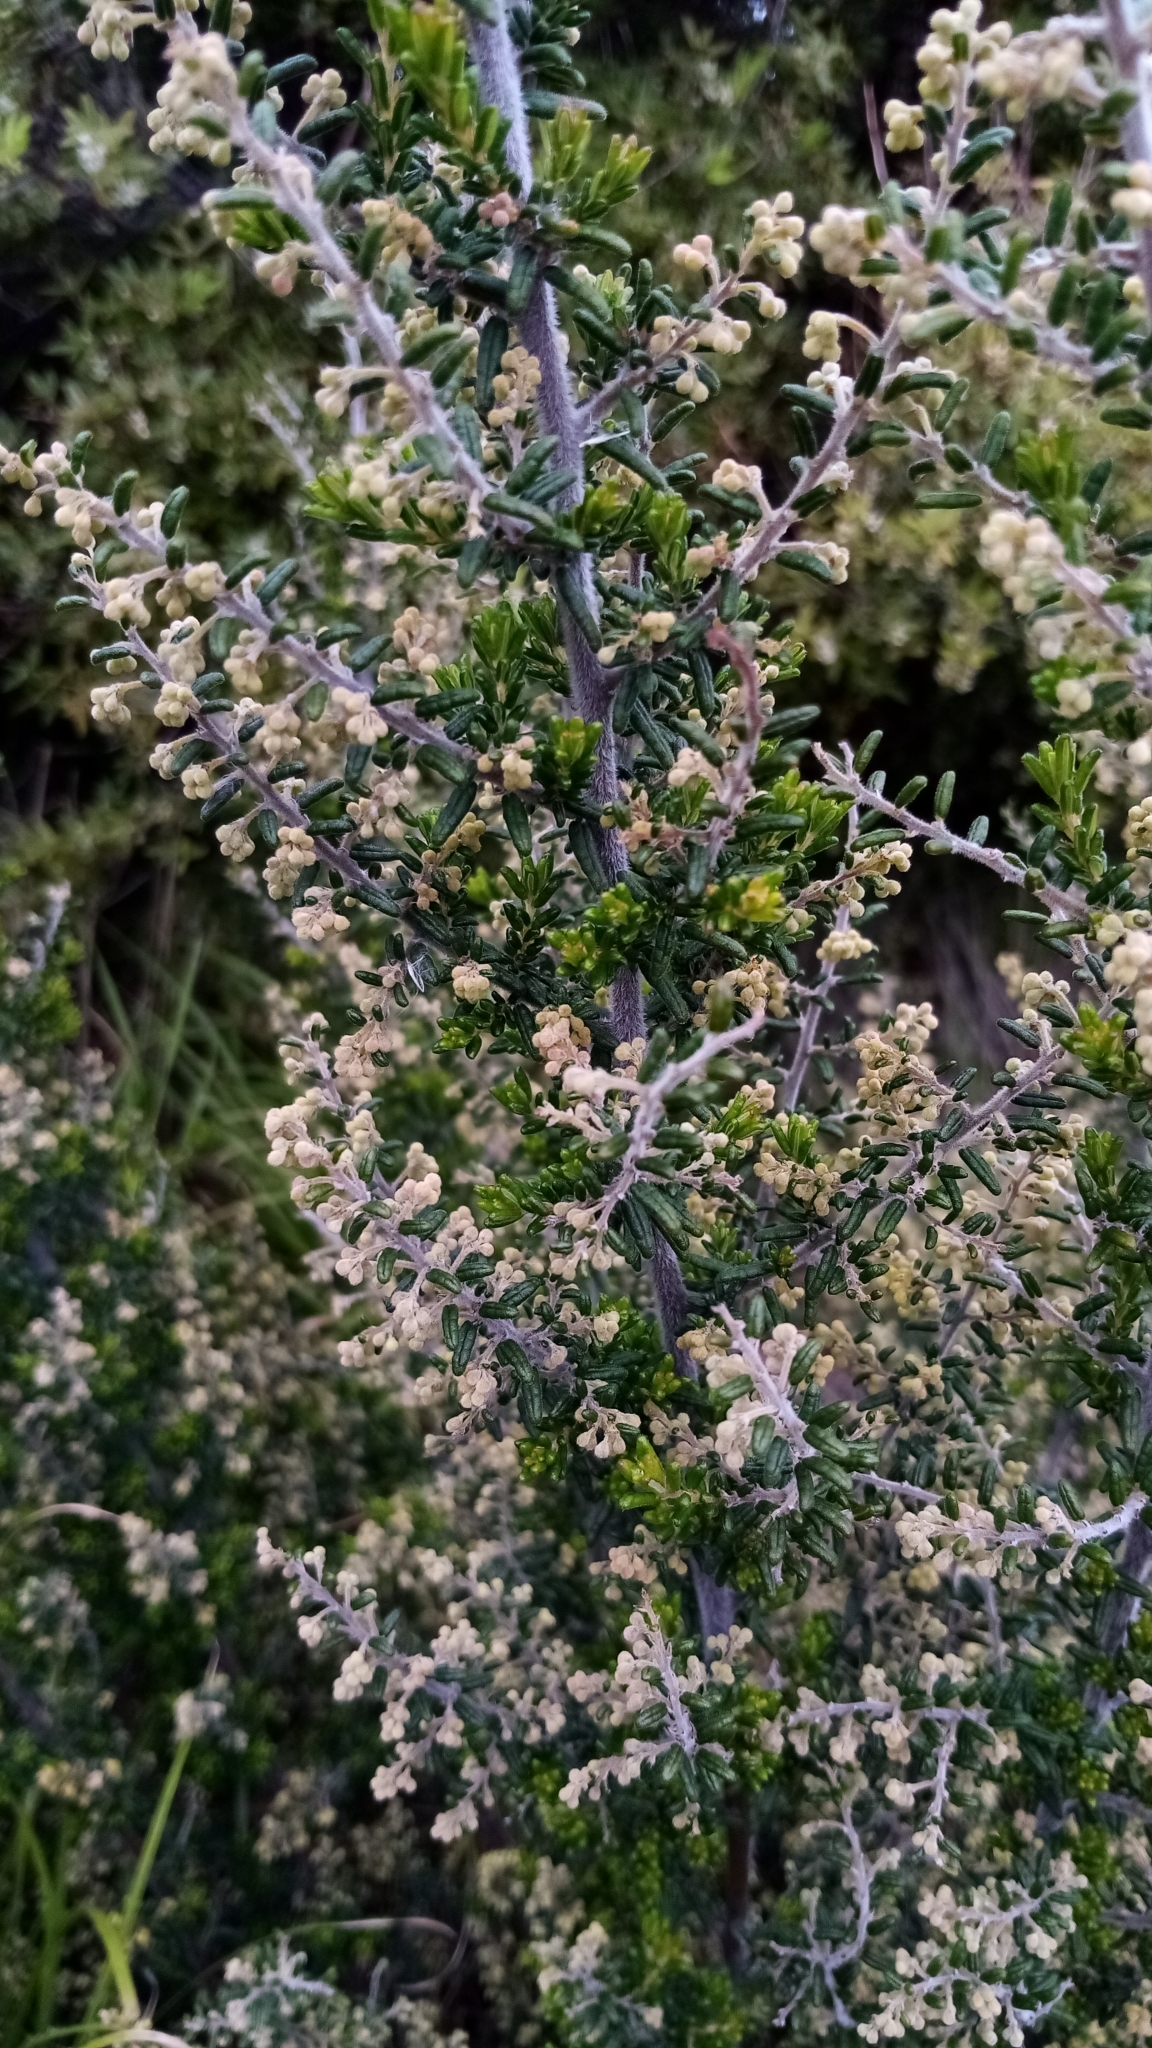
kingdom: Plantae
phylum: Tracheophyta
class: Magnoliopsida
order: Rosales
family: Rhamnaceae
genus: Pomaderris
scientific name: Pomaderris amoena
